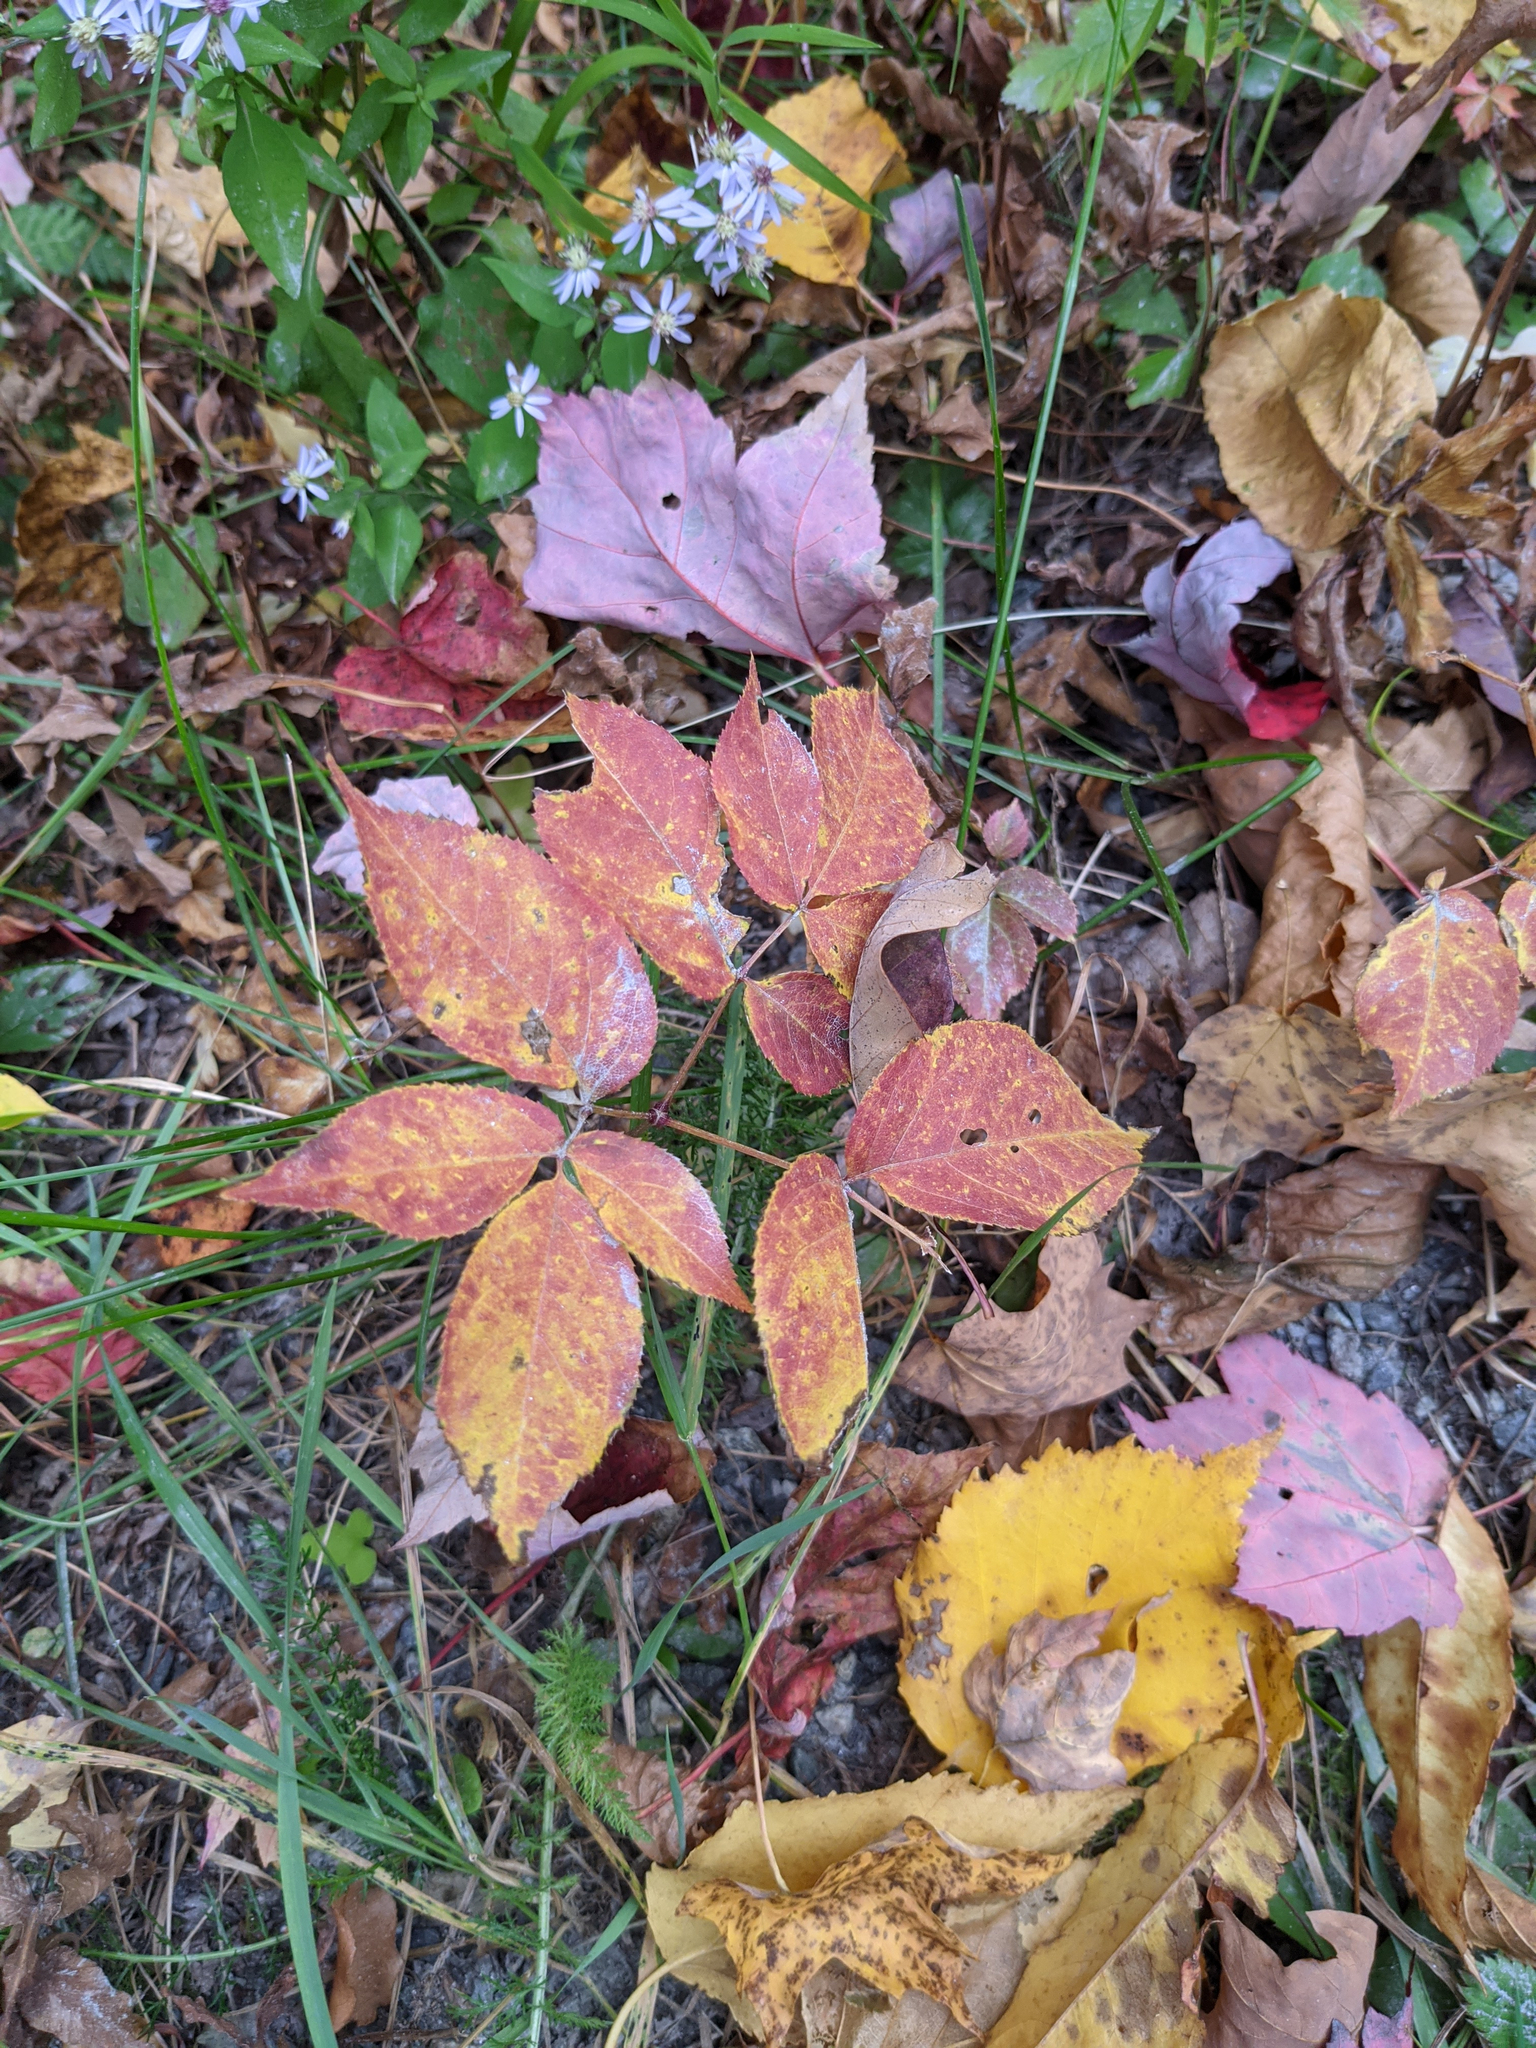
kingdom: Plantae
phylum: Tracheophyta
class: Magnoliopsida
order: Apiales
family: Araliaceae
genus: Aralia
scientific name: Aralia nudicaulis
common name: Wild sarsaparilla
